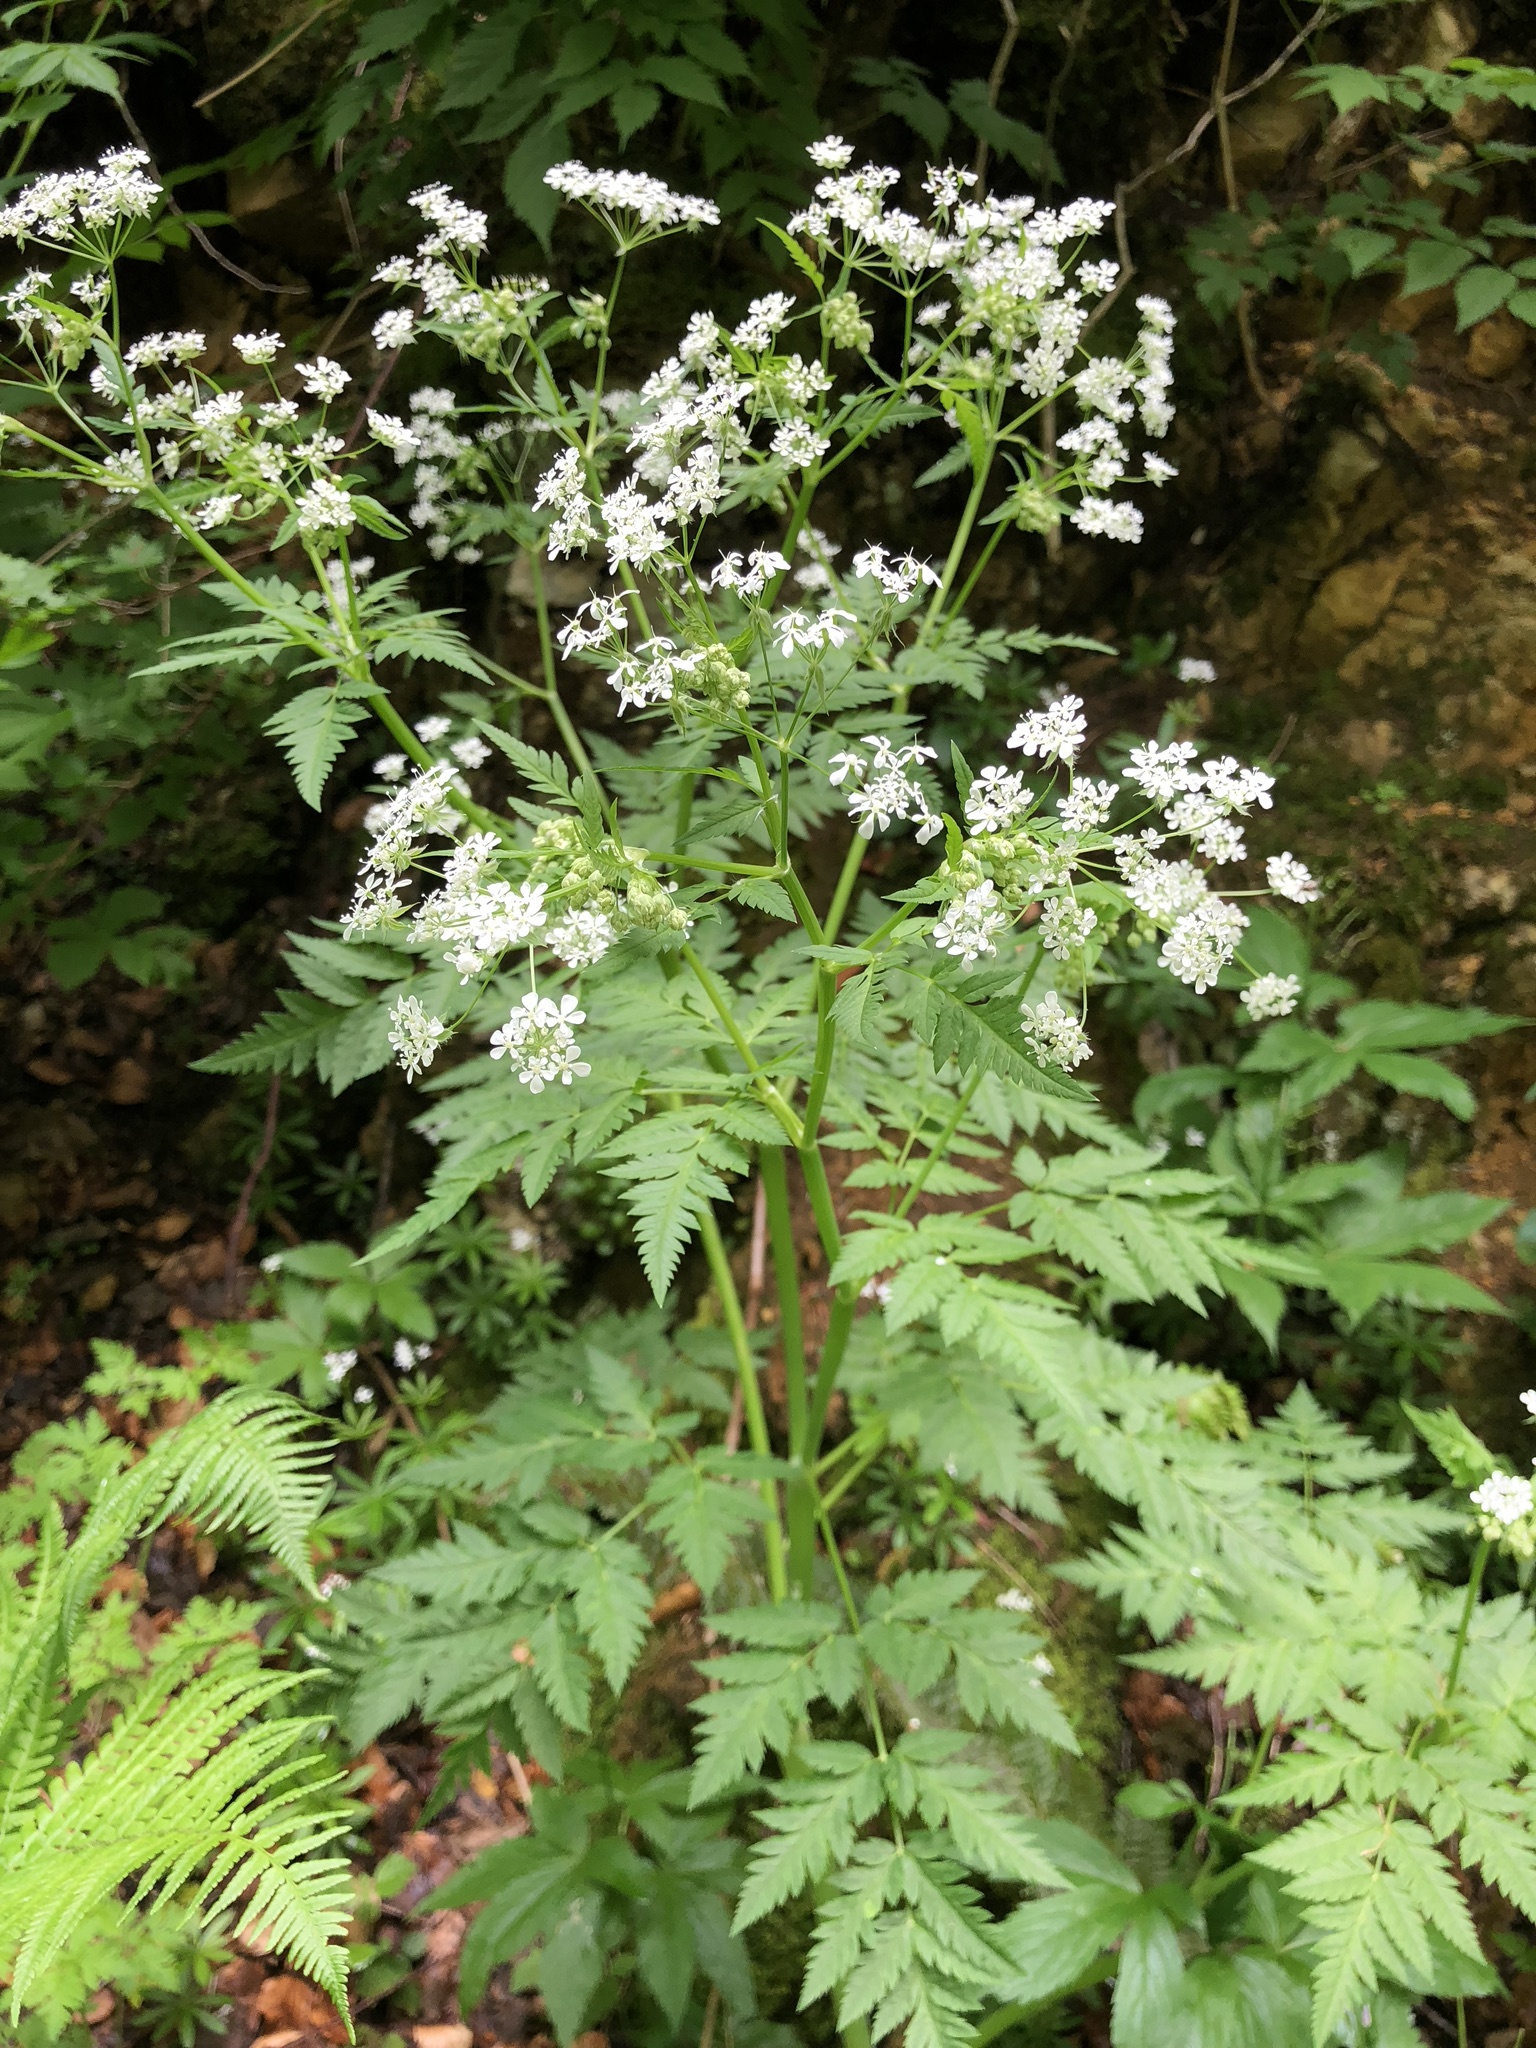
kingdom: Plantae
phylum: Tracheophyta
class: Magnoliopsida
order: Apiales
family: Apiaceae
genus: Anthriscus
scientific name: Anthriscus sylvestris
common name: Cow parsley
